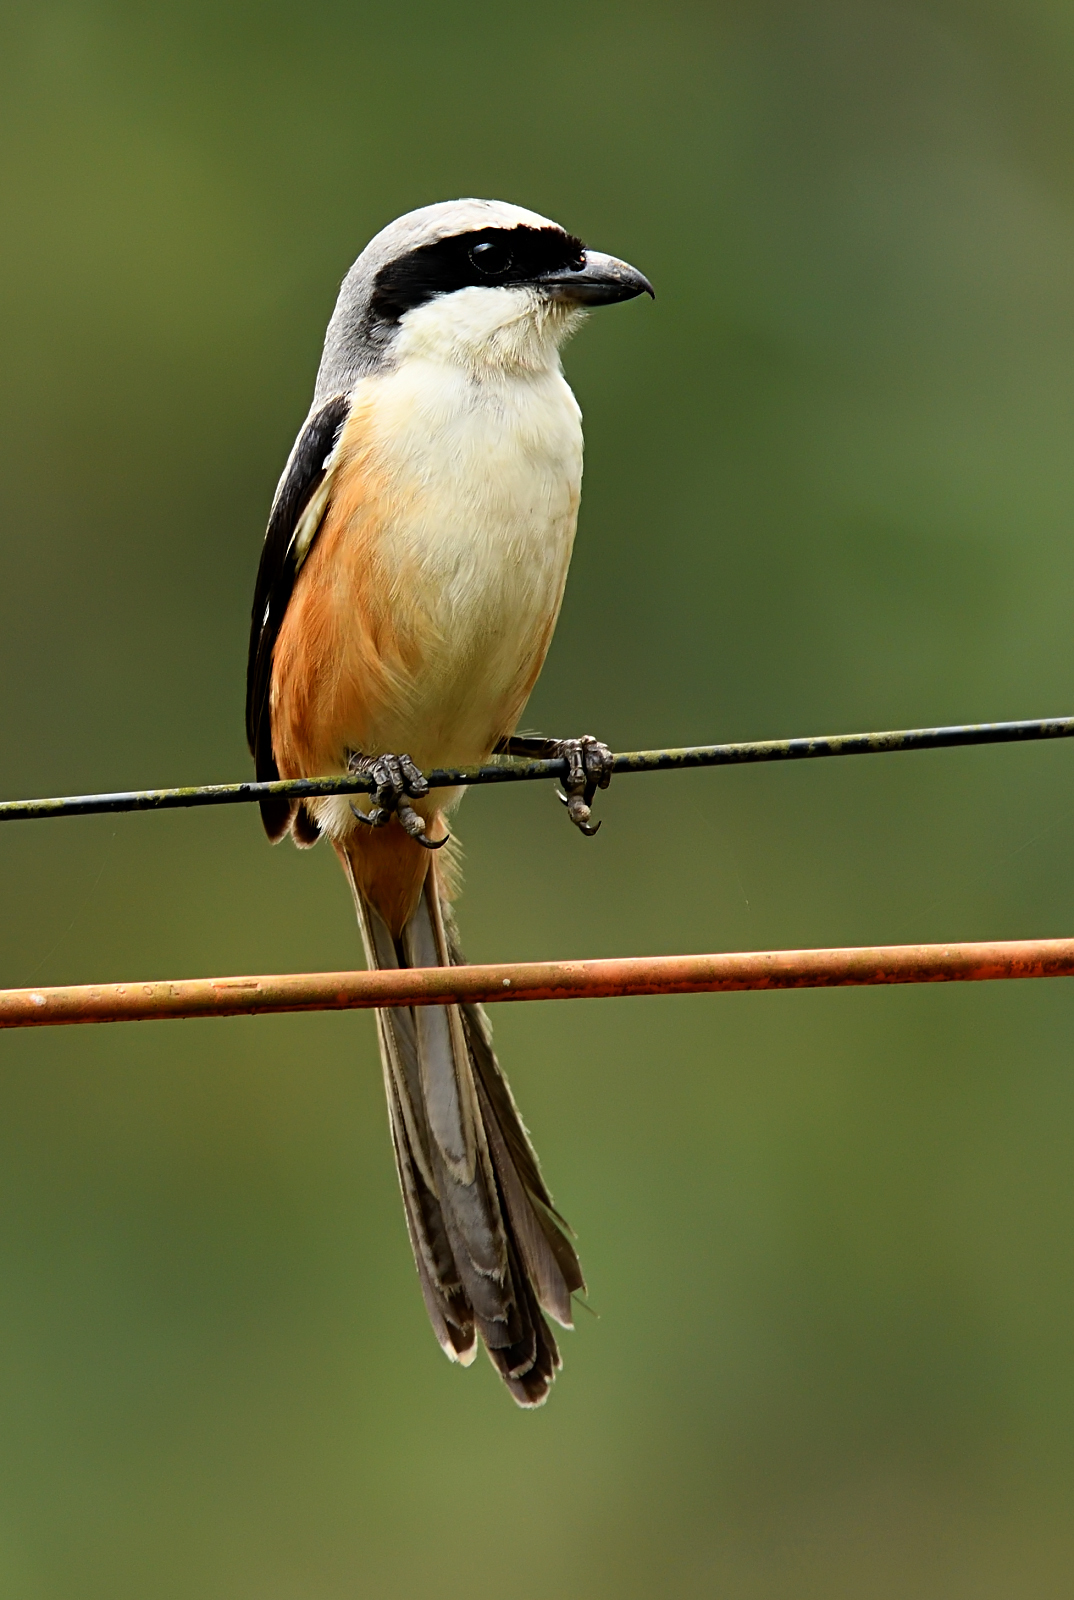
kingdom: Animalia
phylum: Chordata
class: Aves
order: Passeriformes
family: Laniidae
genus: Lanius
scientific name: Lanius schach
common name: Long-tailed shrike
